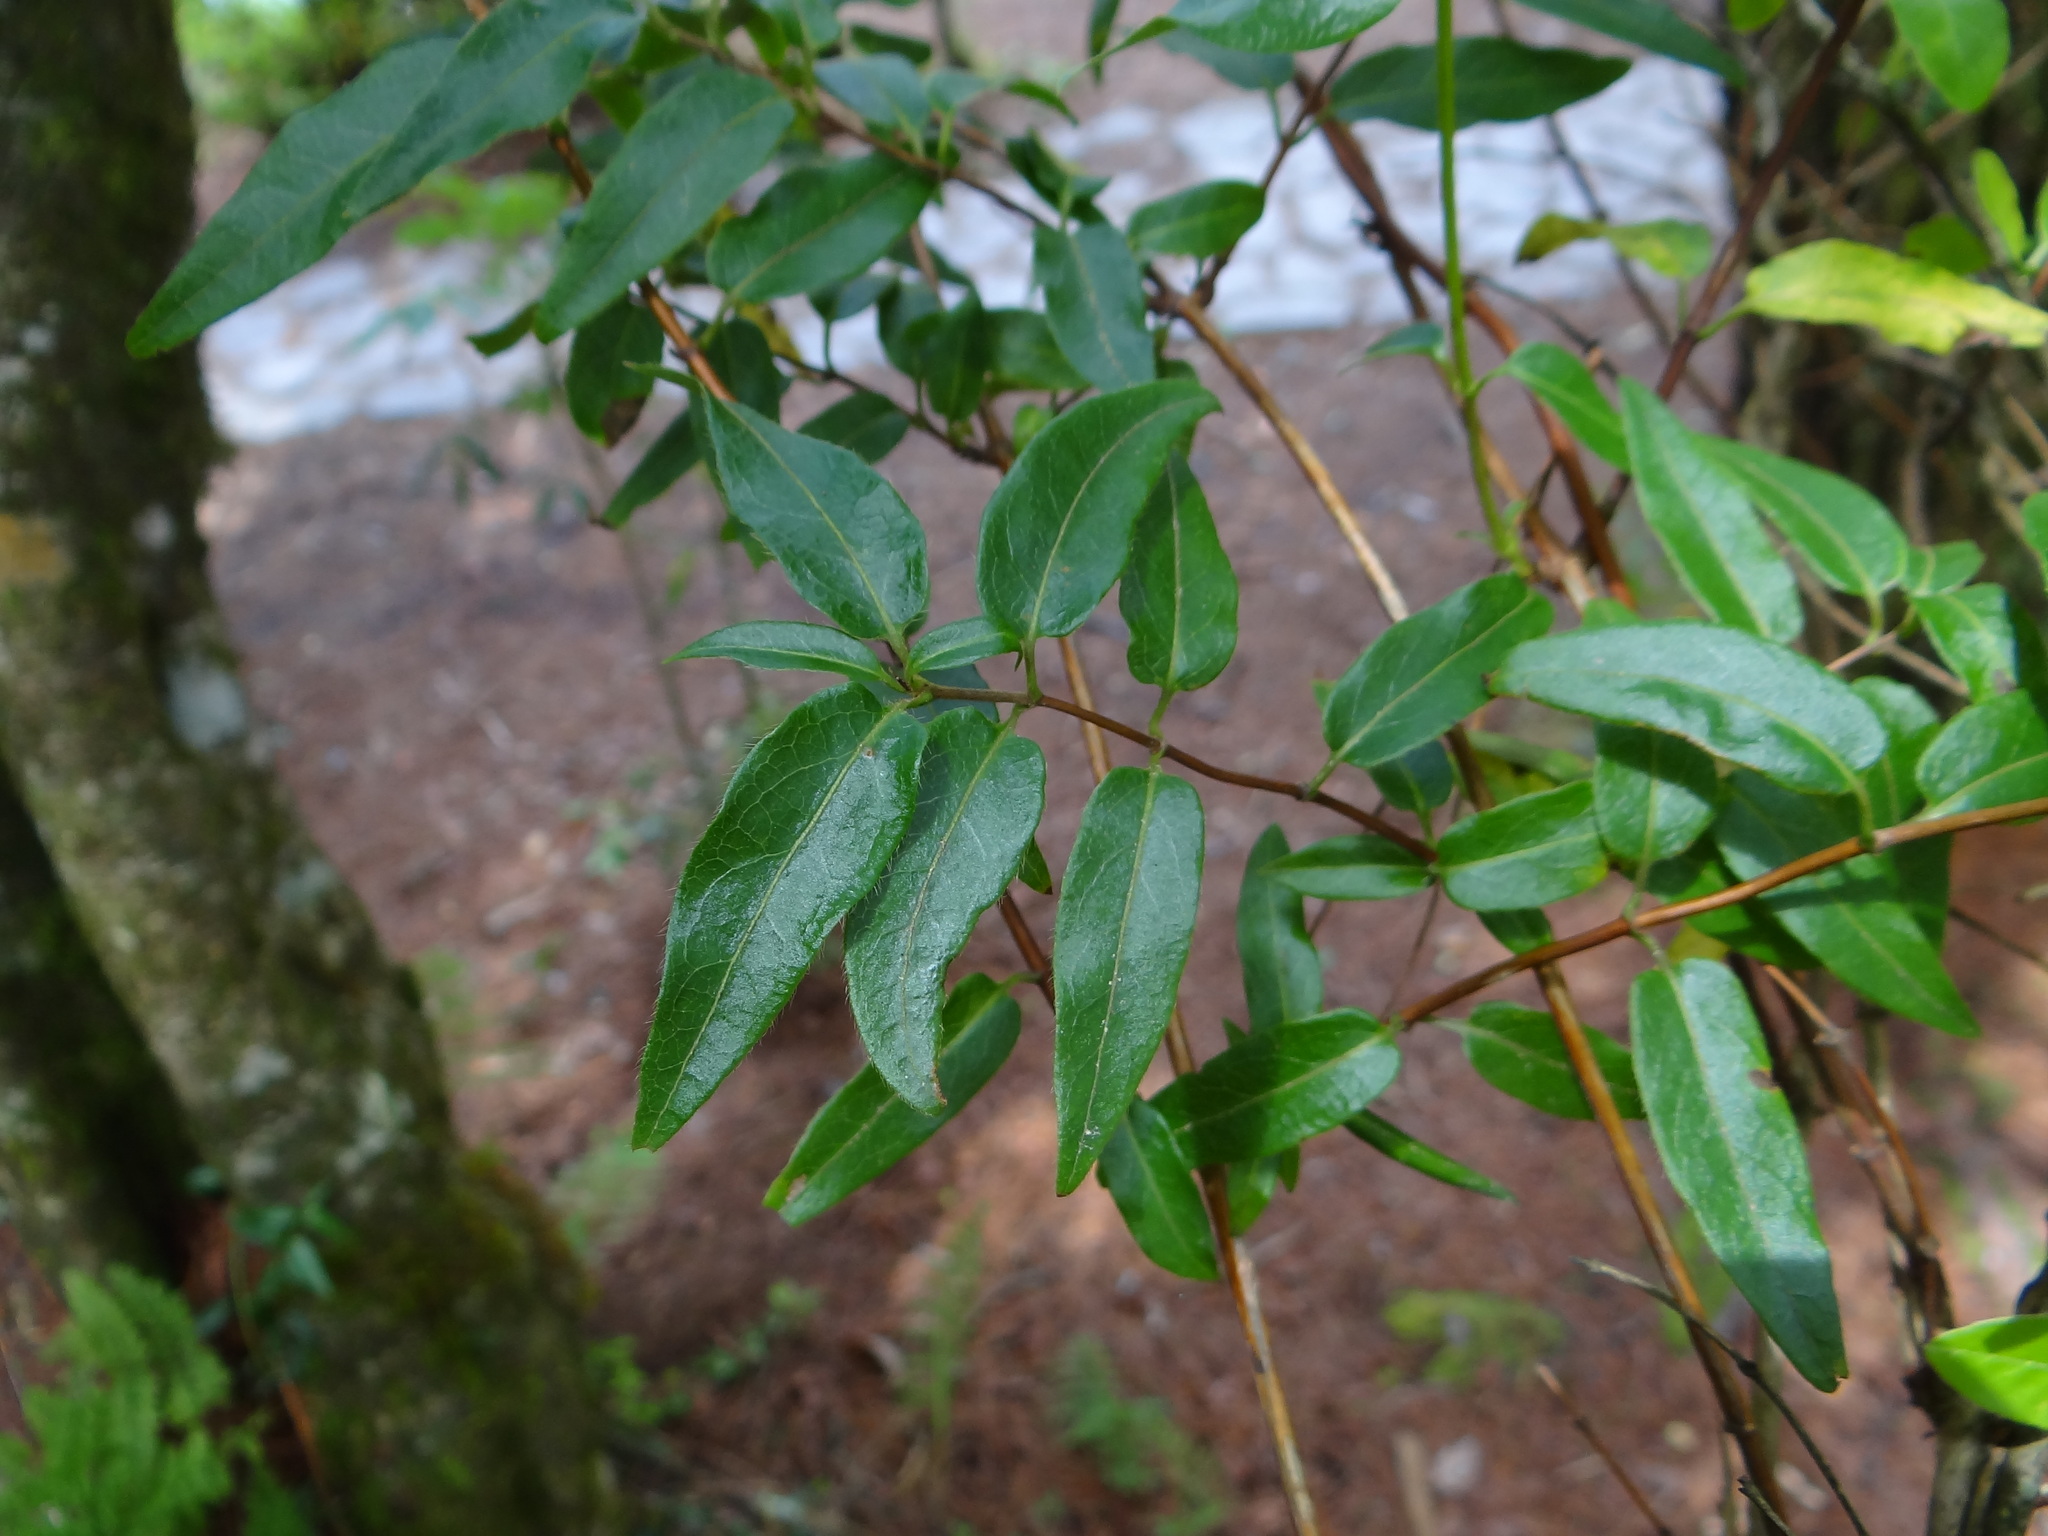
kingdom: Plantae
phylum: Tracheophyta
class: Magnoliopsida
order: Dipsacales
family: Caprifoliaceae
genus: Lonicera
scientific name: Lonicera acuminata
